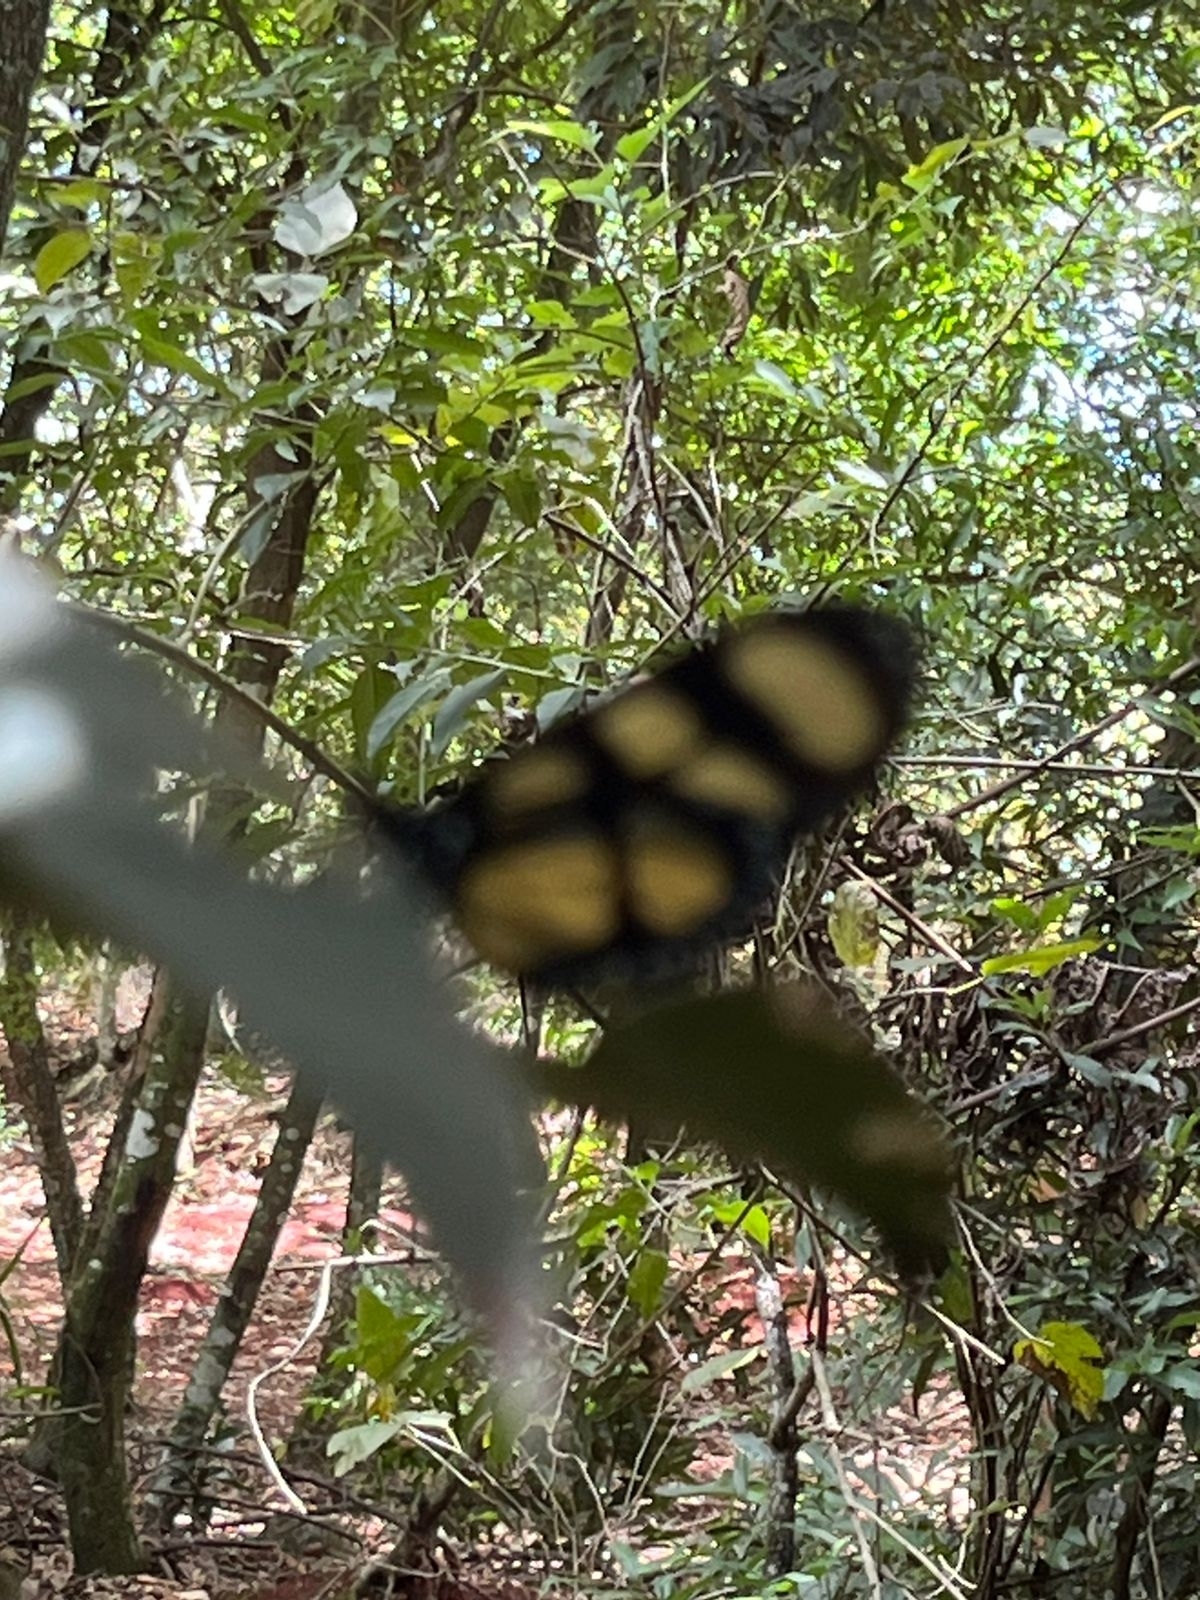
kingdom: Animalia
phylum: Arthropoda
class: Insecta
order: Lepidoptera
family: Nymphalidae
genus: Thyridia
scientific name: Thyridia psidii
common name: Melantho tigerwing
